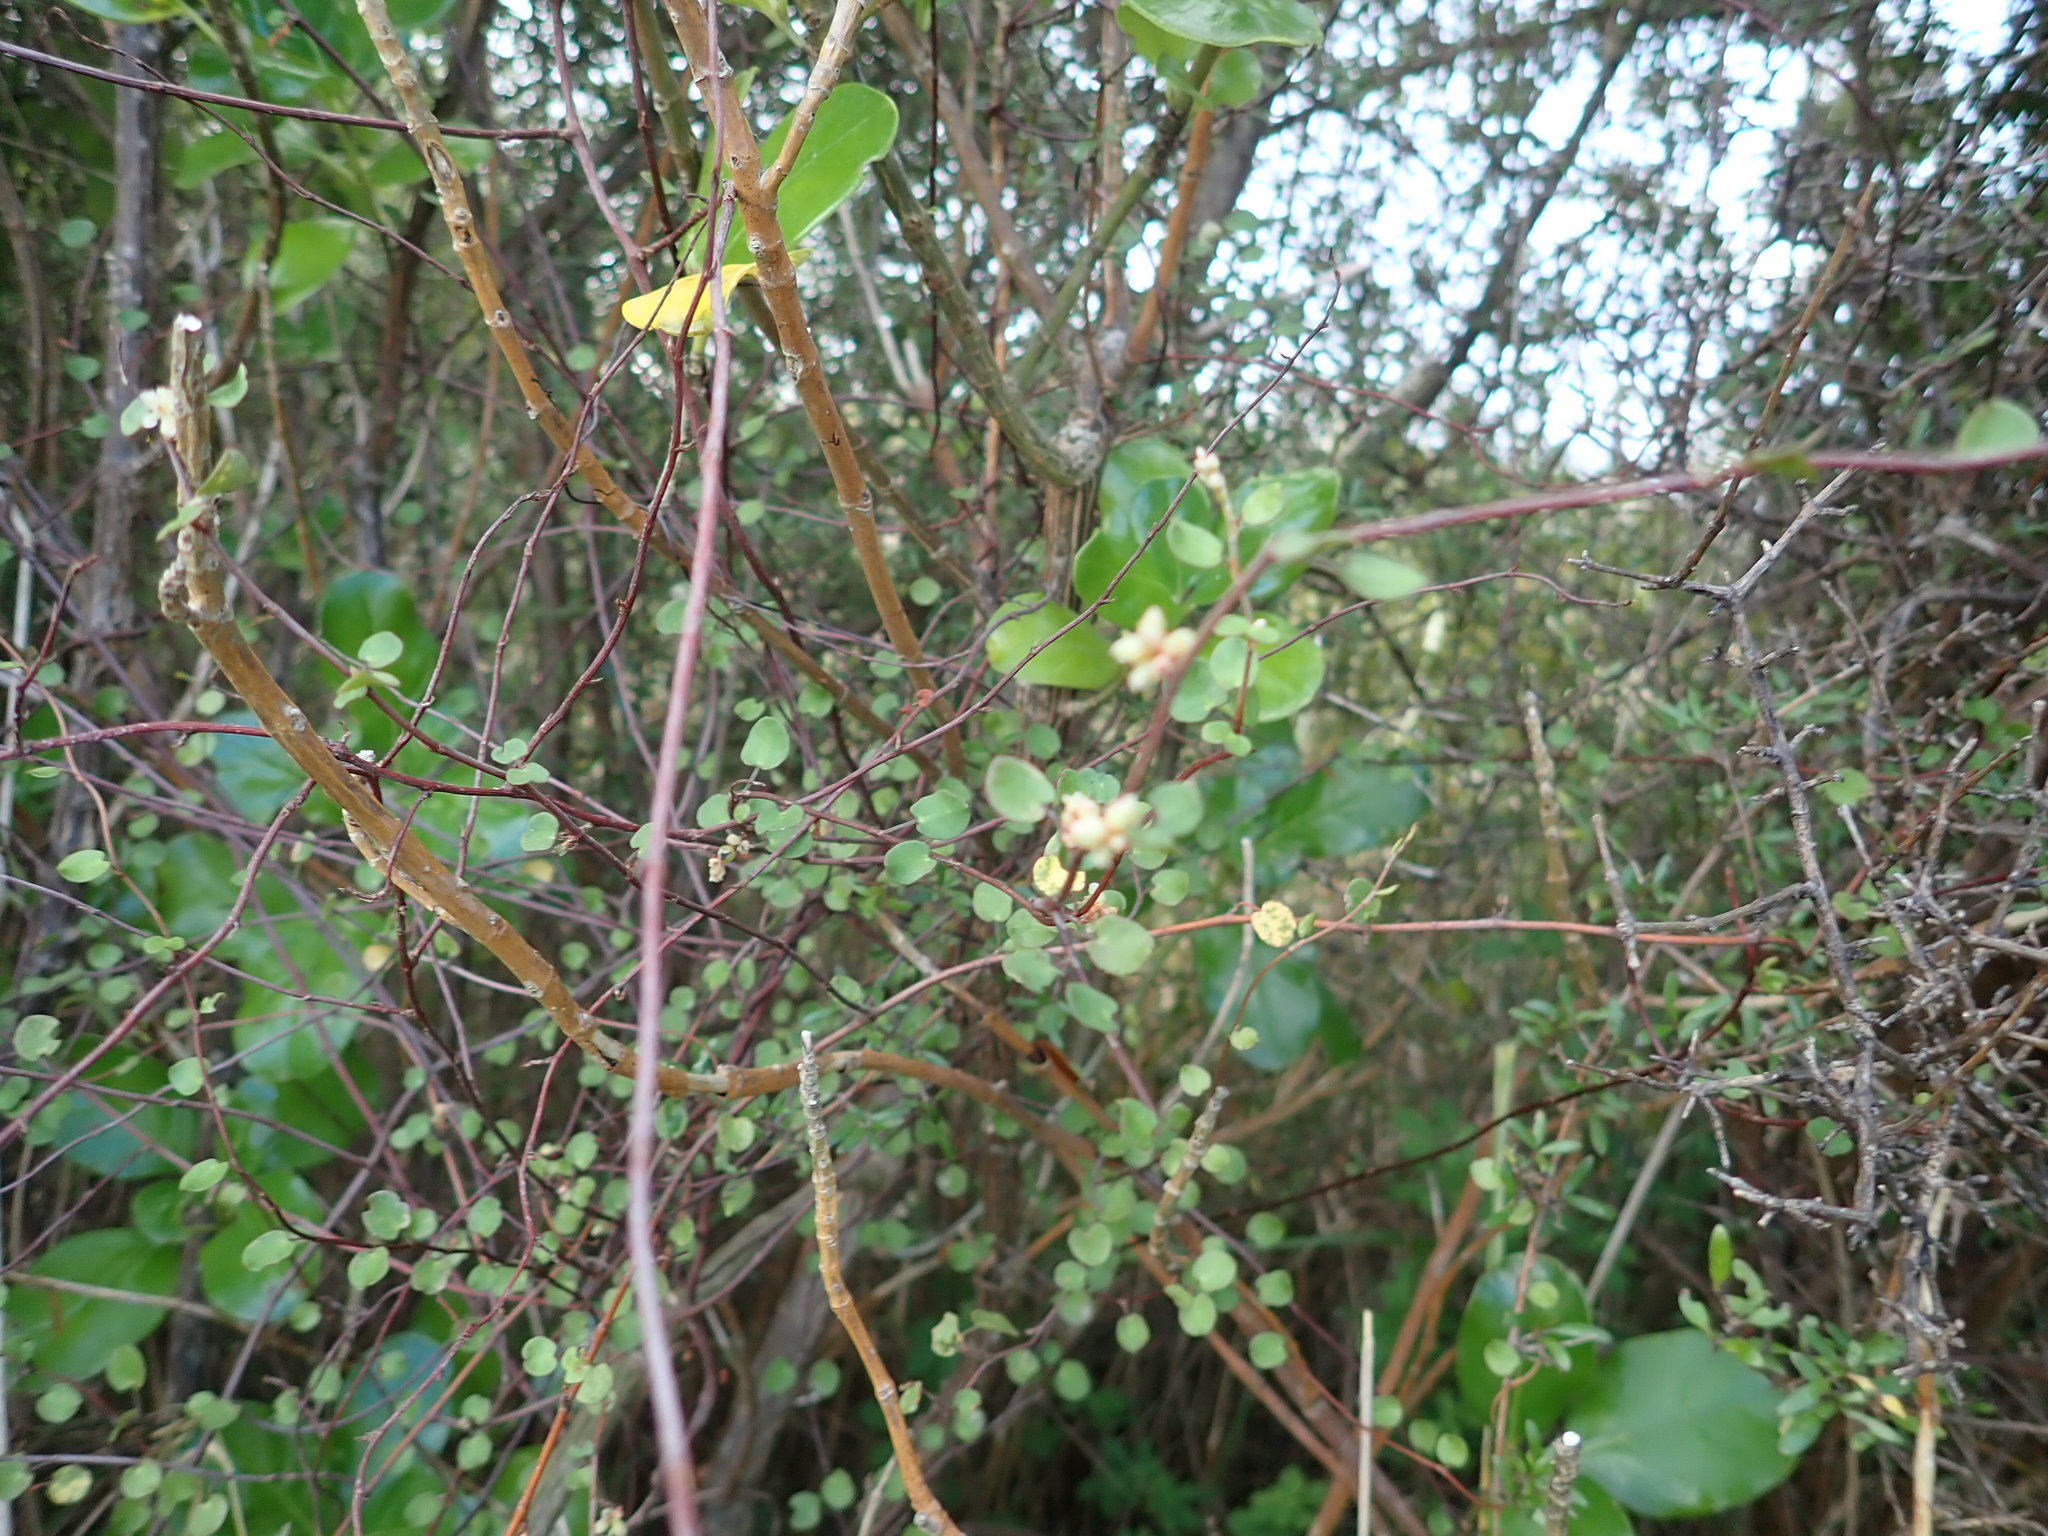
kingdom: Plantae
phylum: Tracheophyta
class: Magnoliopsida
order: Caryophyllales
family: Polygonaceae
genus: Muehlenbeckia
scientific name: Muehlenbeckia complexa
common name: Wireplant
